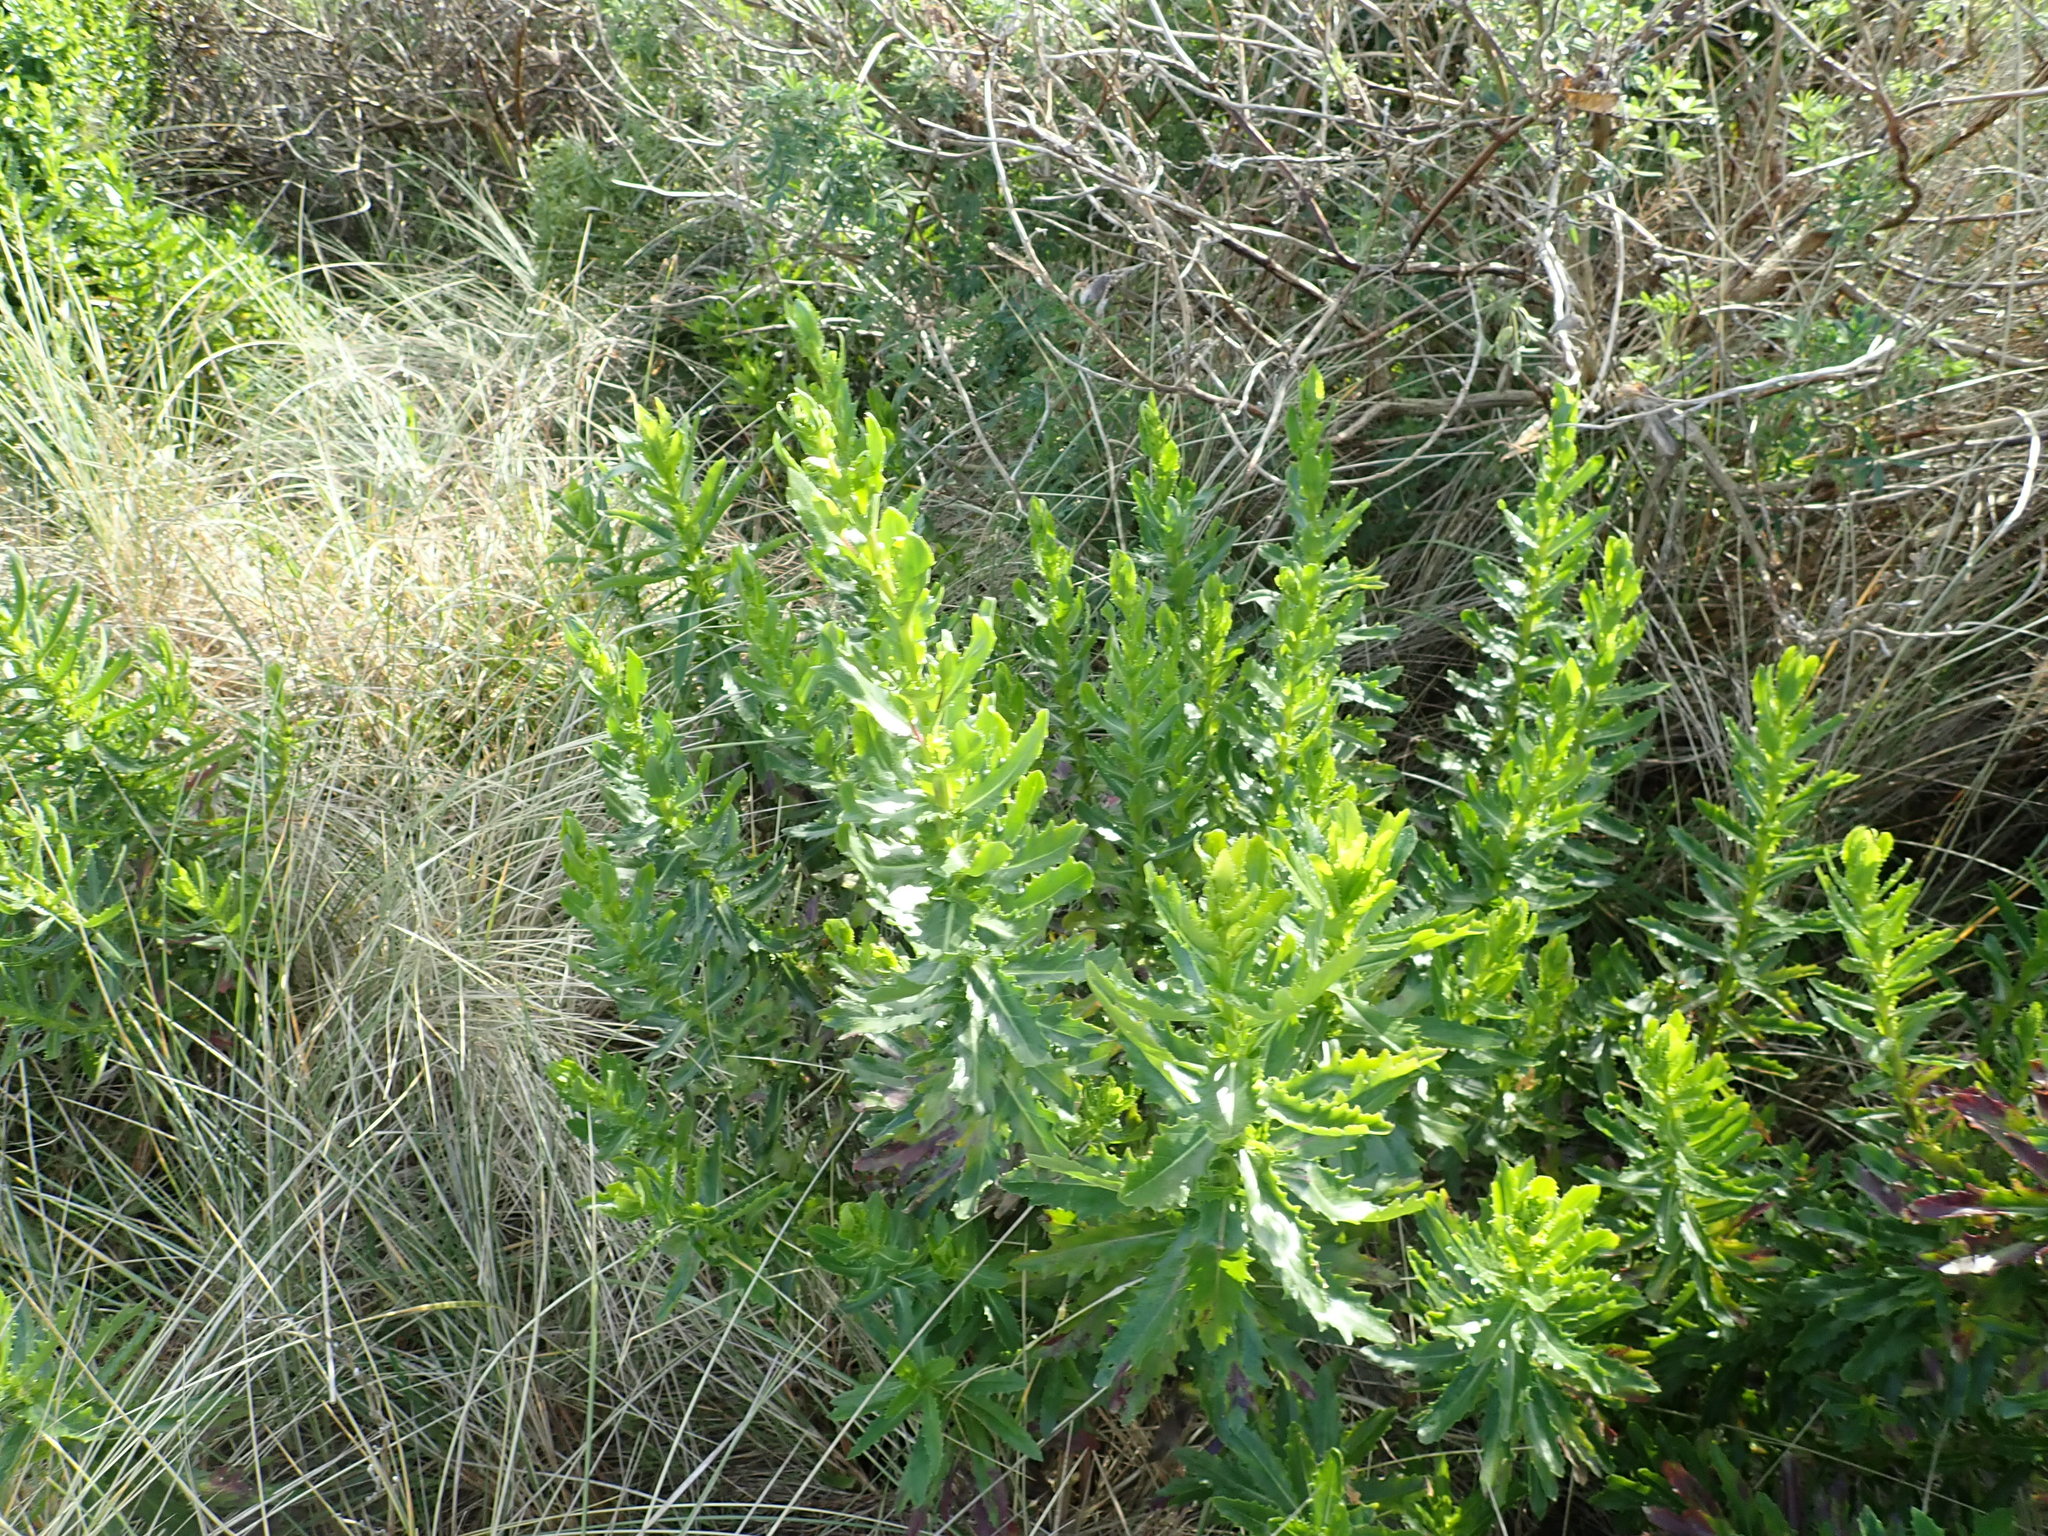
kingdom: Plantae
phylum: Tracheophyta
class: Magnoliopsida
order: Asterales
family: Asteraceae
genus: Senecio
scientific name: Senecio glastifolius
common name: Woad-leaved ragwort
